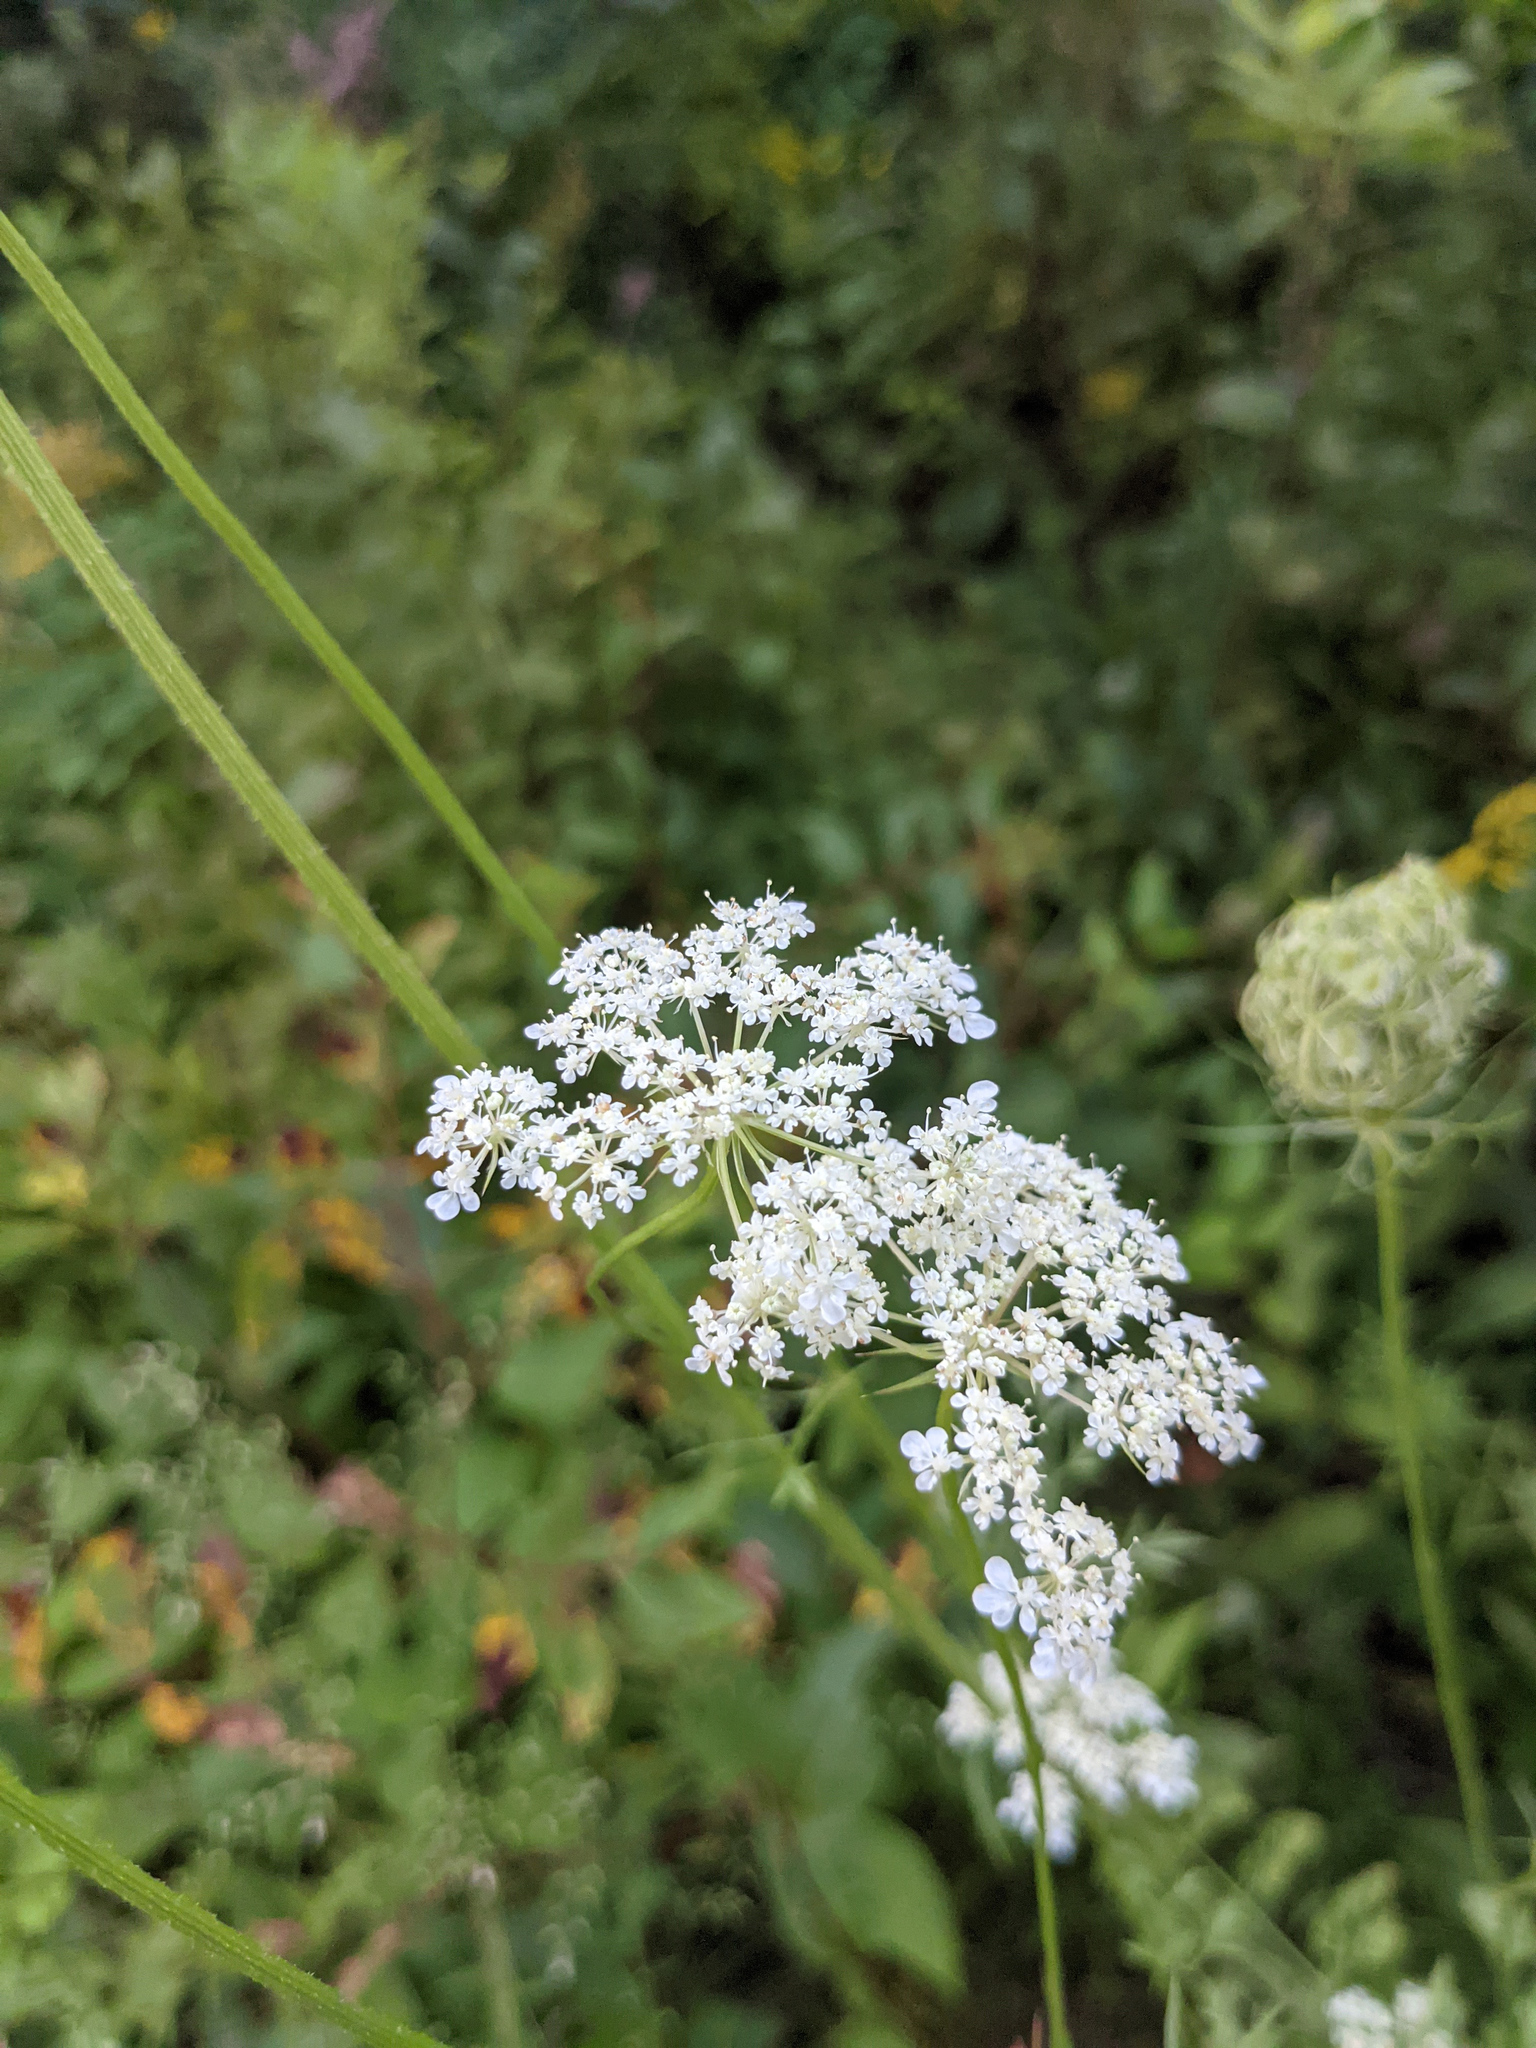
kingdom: Plantae
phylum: Tracheophyta
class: Magnoliopsida
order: Apiales
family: Apiaceae
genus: Daucus
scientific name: Daucus carota
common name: Wild carrot
